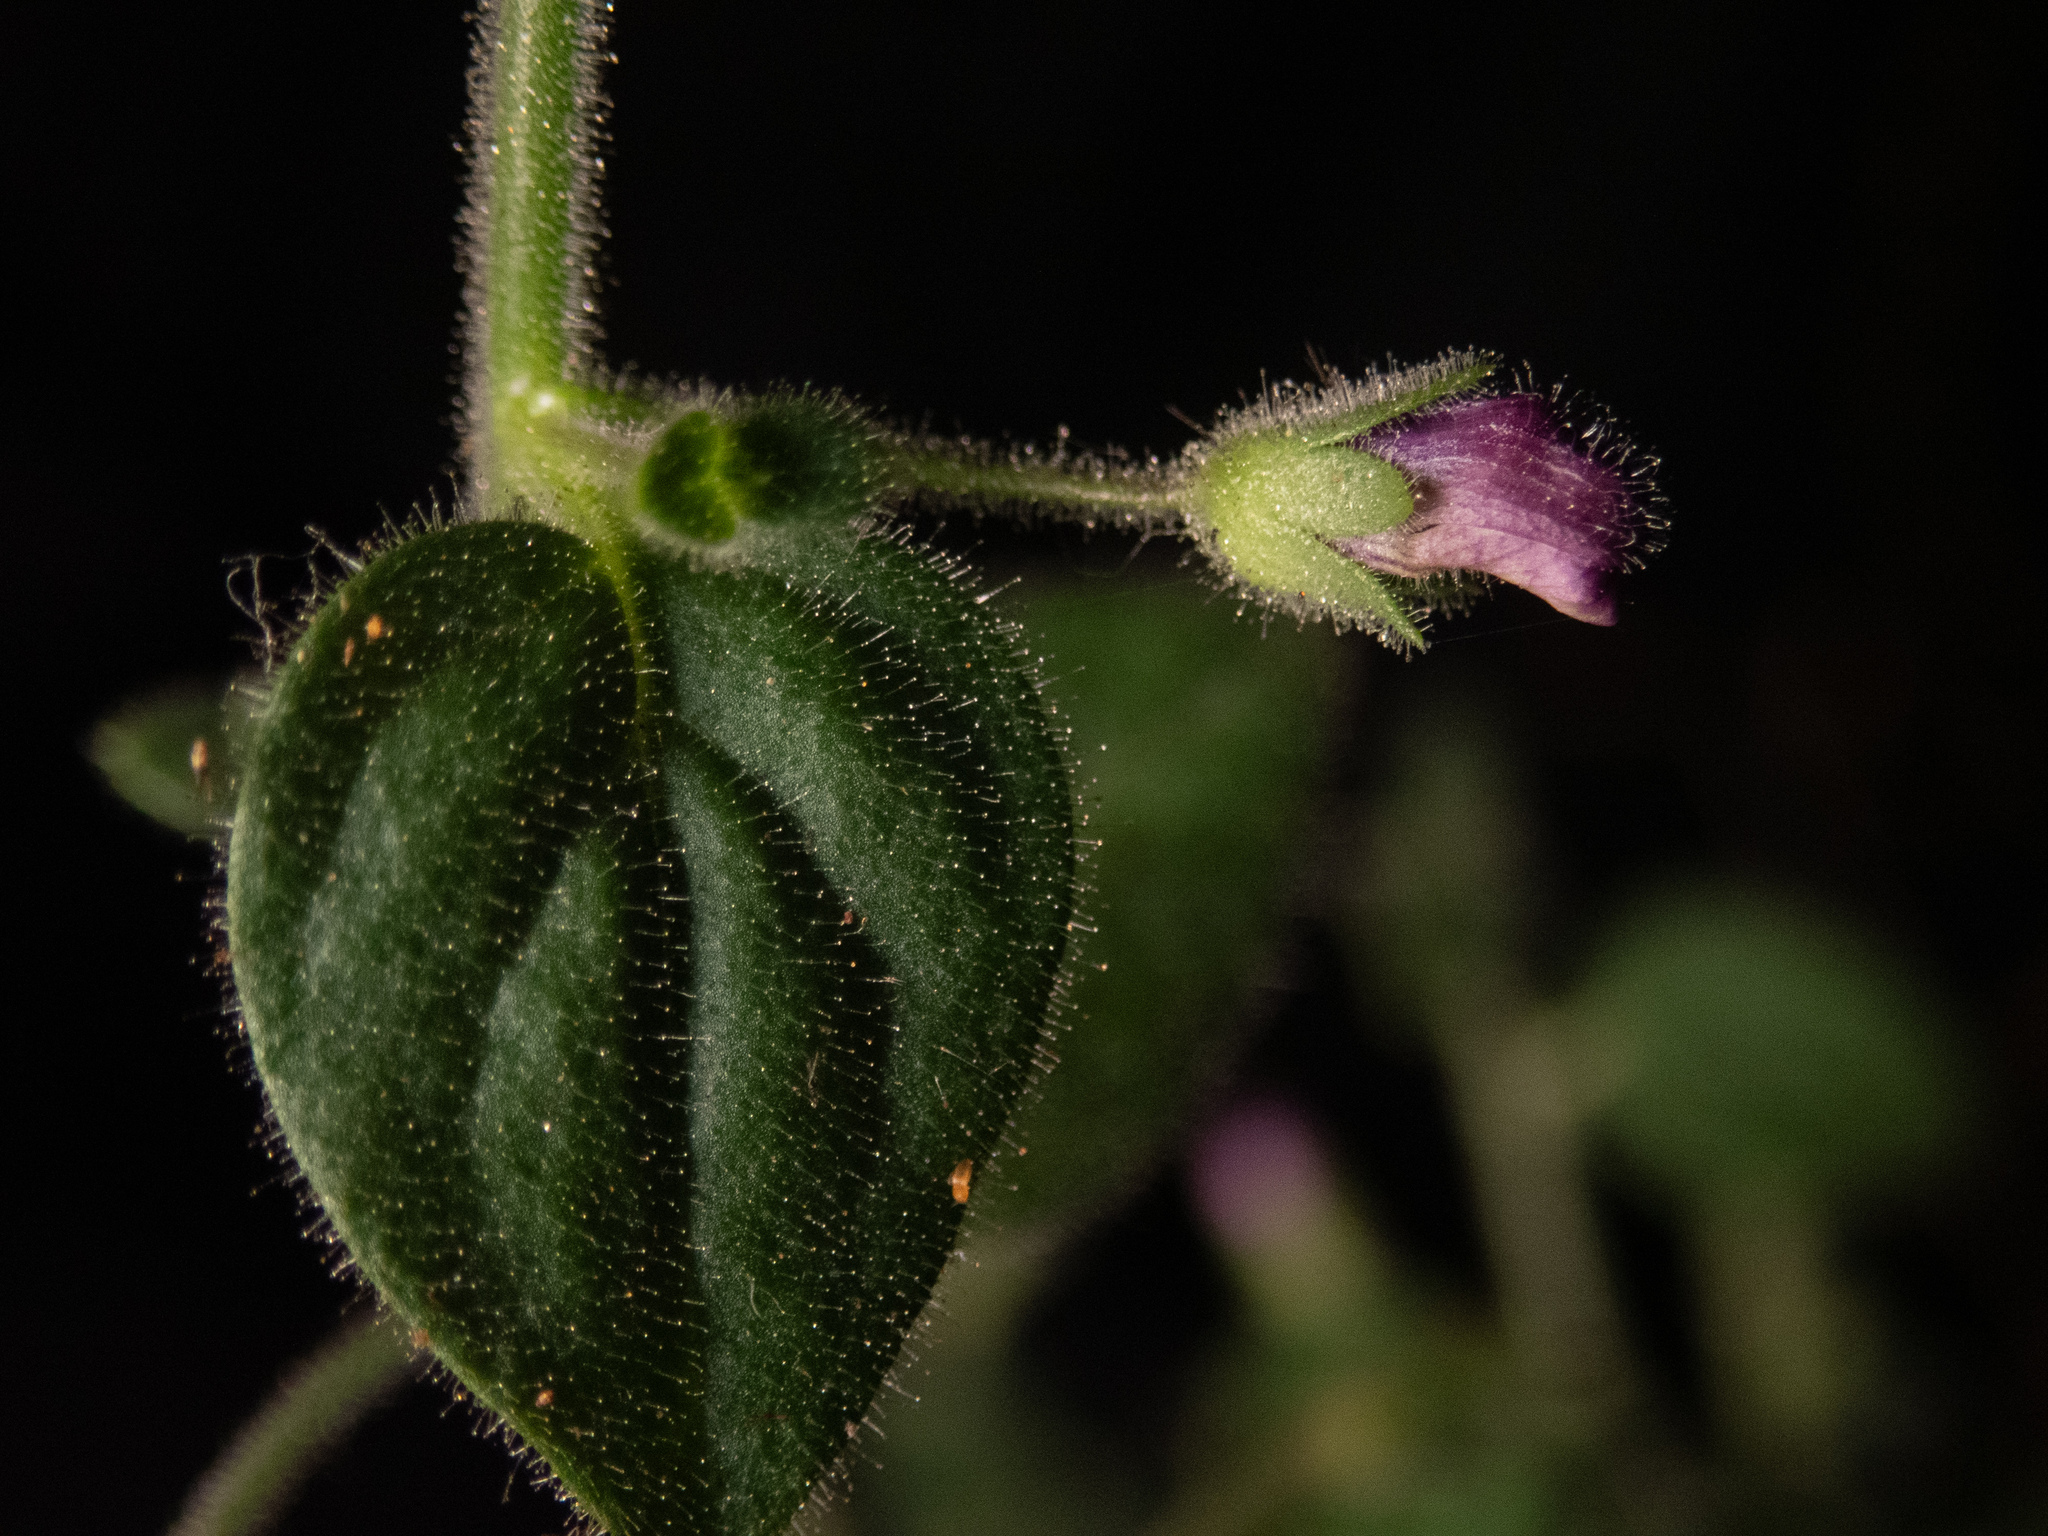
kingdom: Plantae
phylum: Tracheophyta
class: Magnoliopsida
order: Lamiales
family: Plantaginaceae
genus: Sairocarpus
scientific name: Sairocarpus nuttallianus
